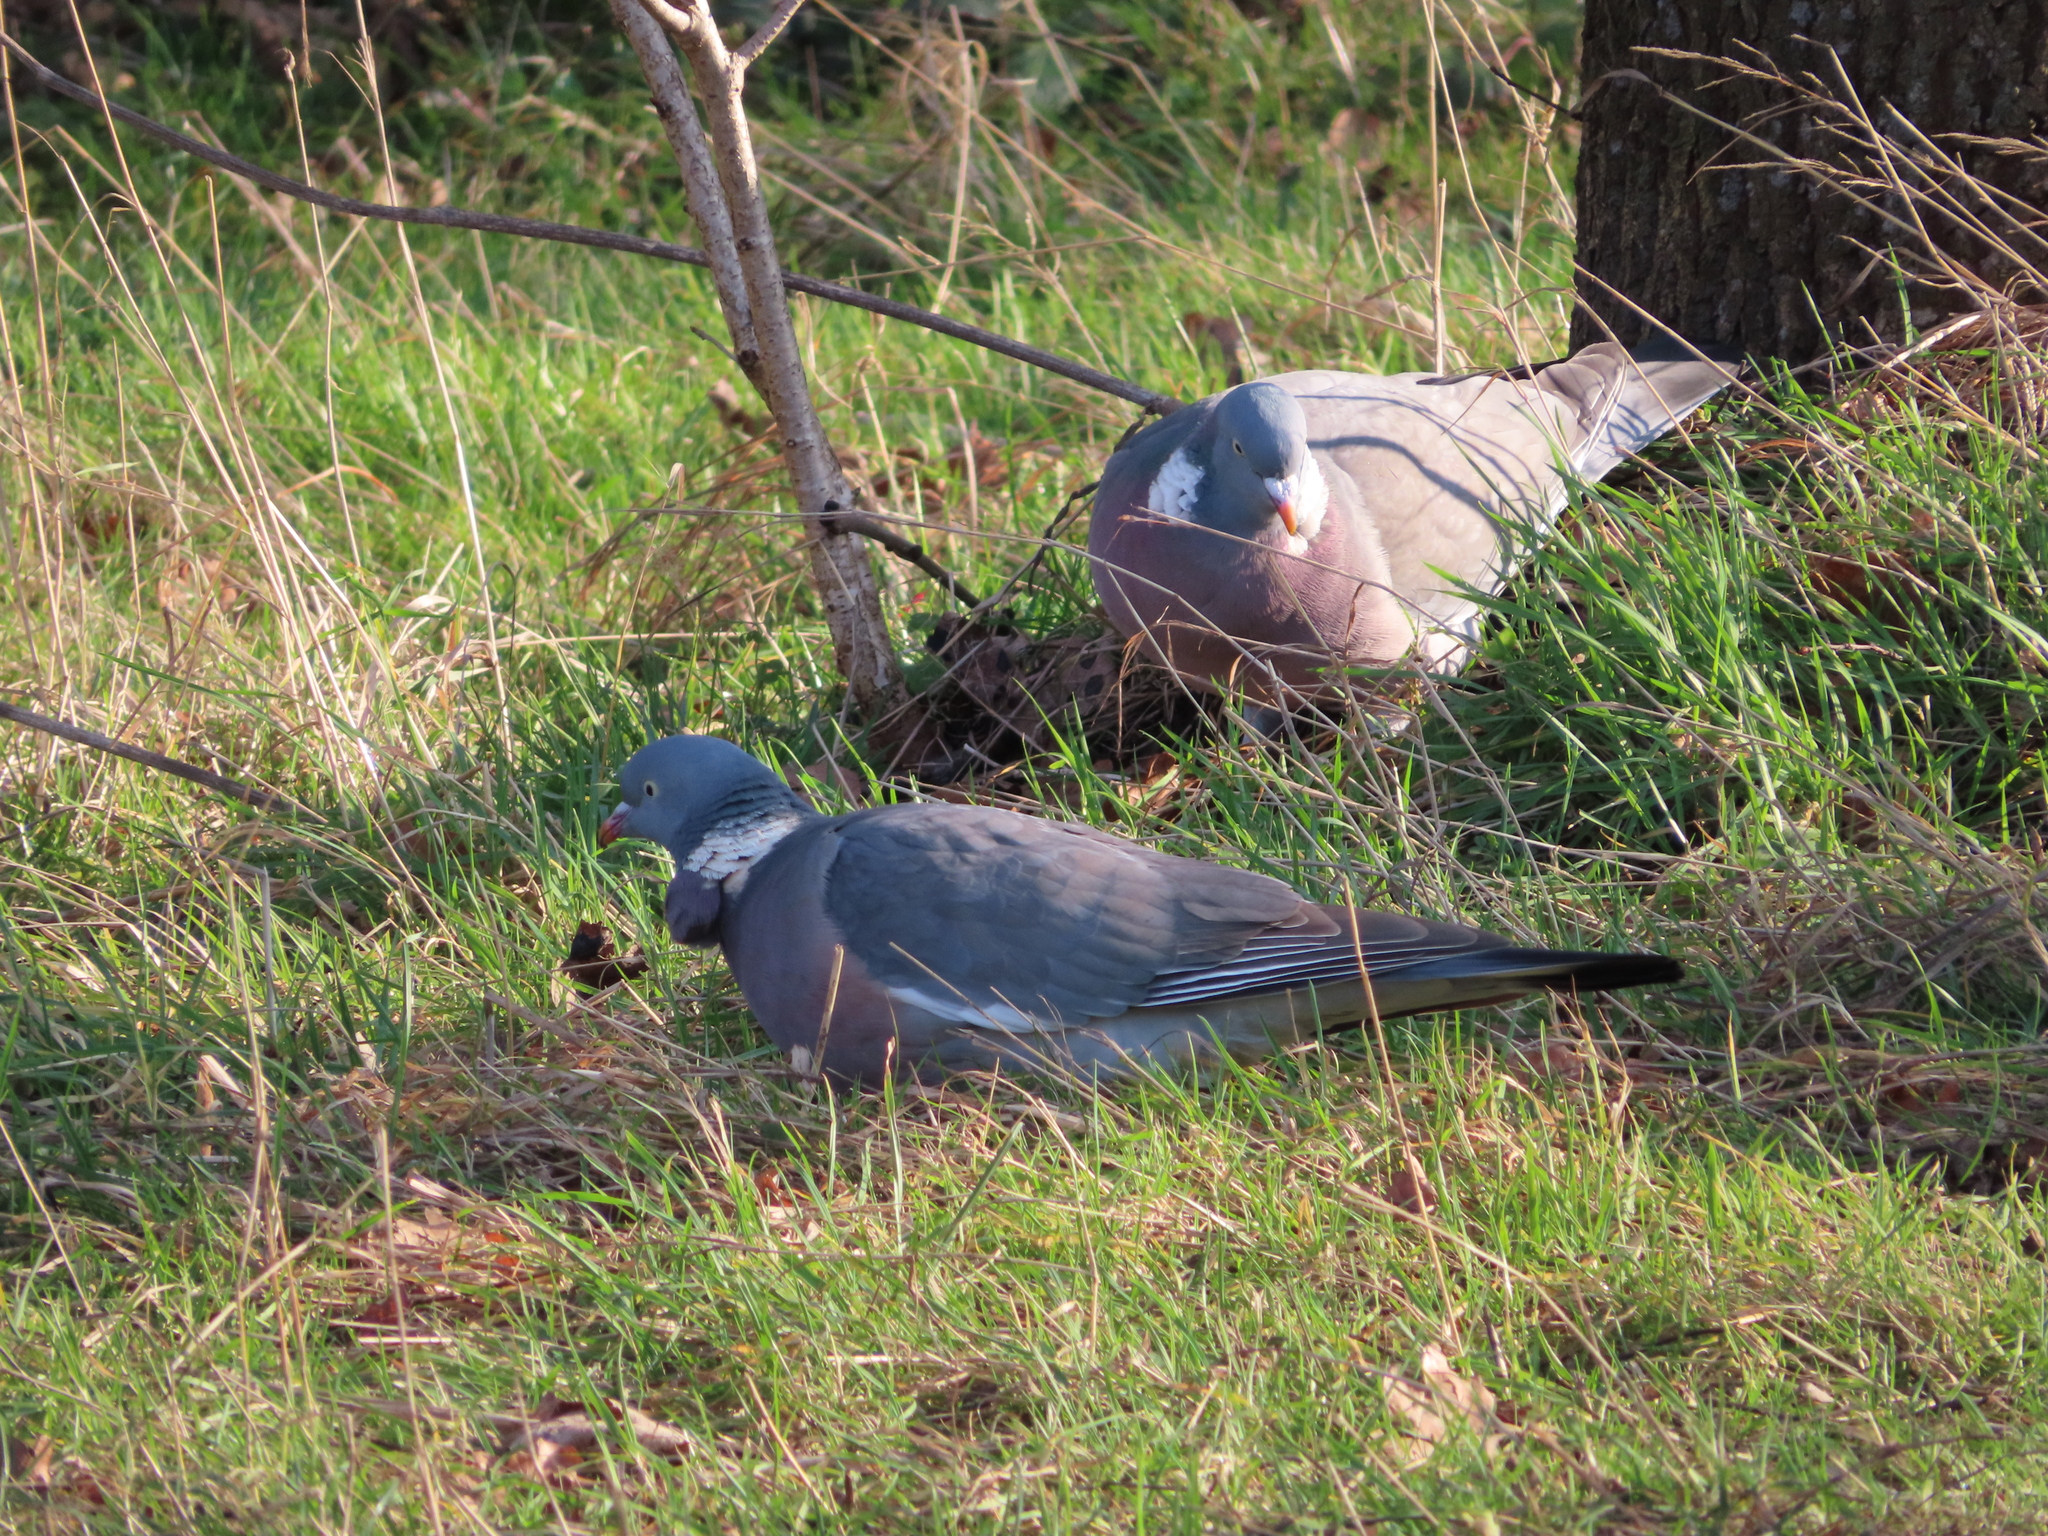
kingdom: Animalia
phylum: Chordata
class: Aves
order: Columbiformes
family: Columbidae
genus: Columba
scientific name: Columba palumbus
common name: Common wood pigeon
